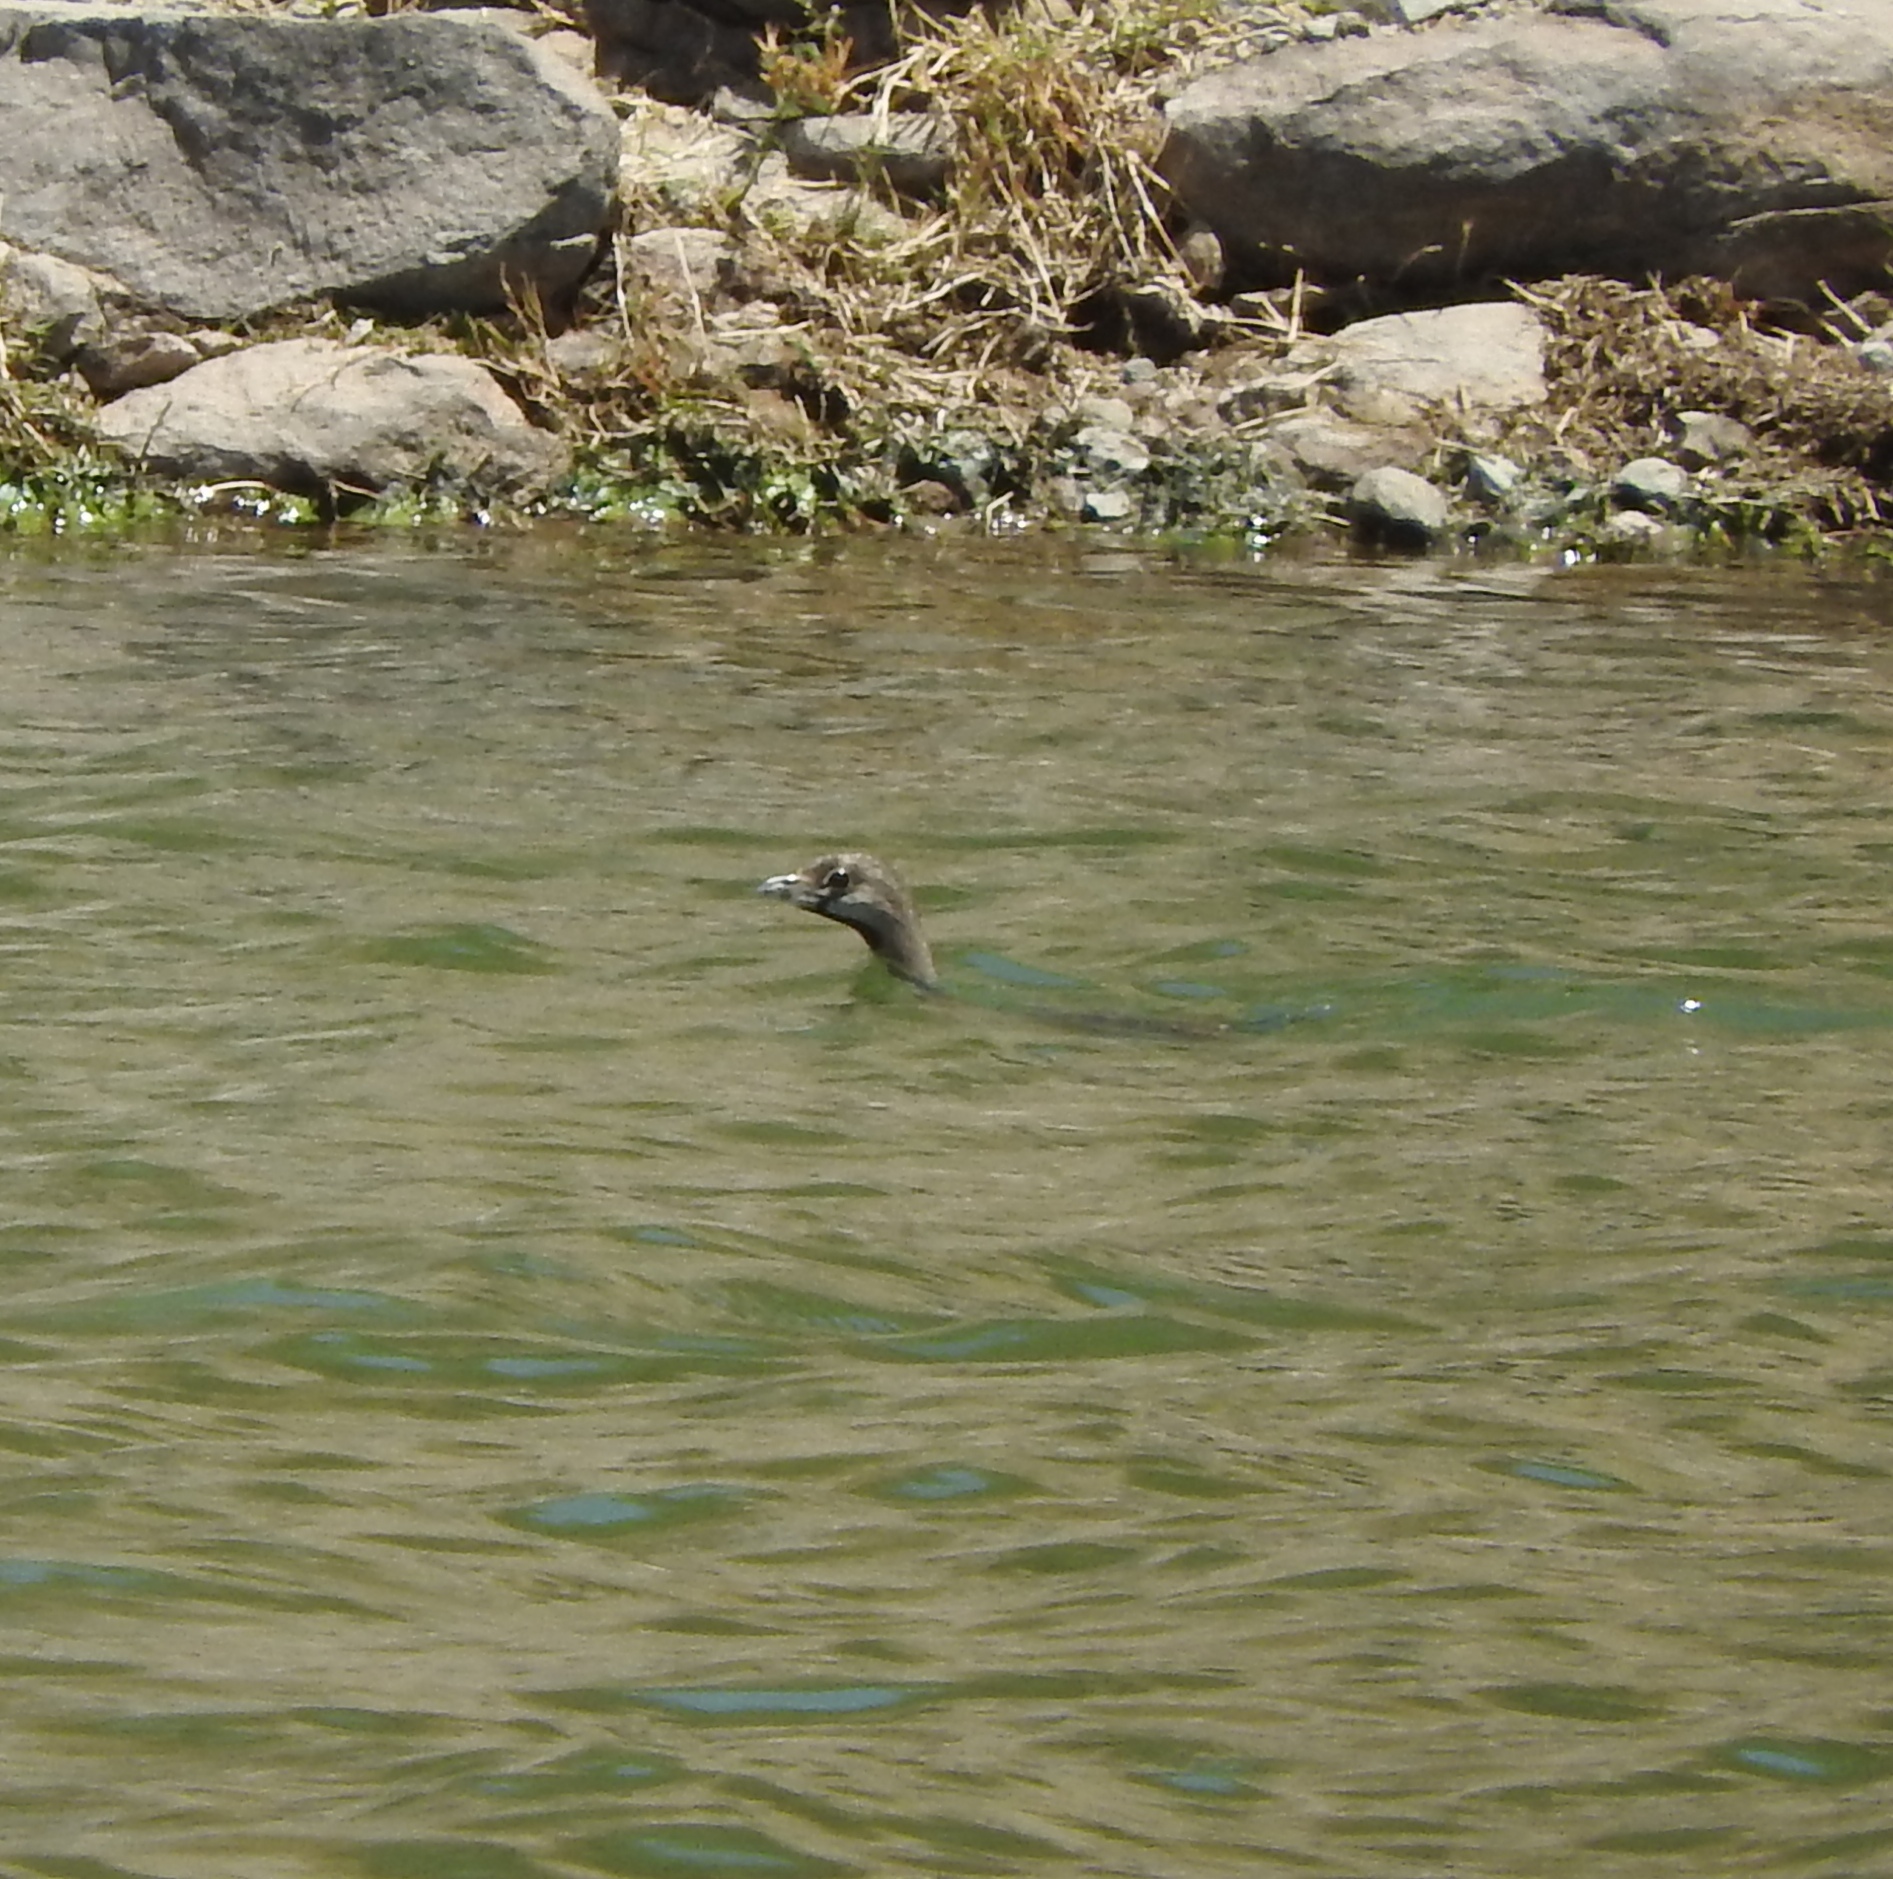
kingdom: Animalia
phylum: Chordata
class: Aves
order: Podicipediformes
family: Podicipedidae
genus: Podilymbus
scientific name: Podilymbus podiceps
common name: Pied-billed grebe
